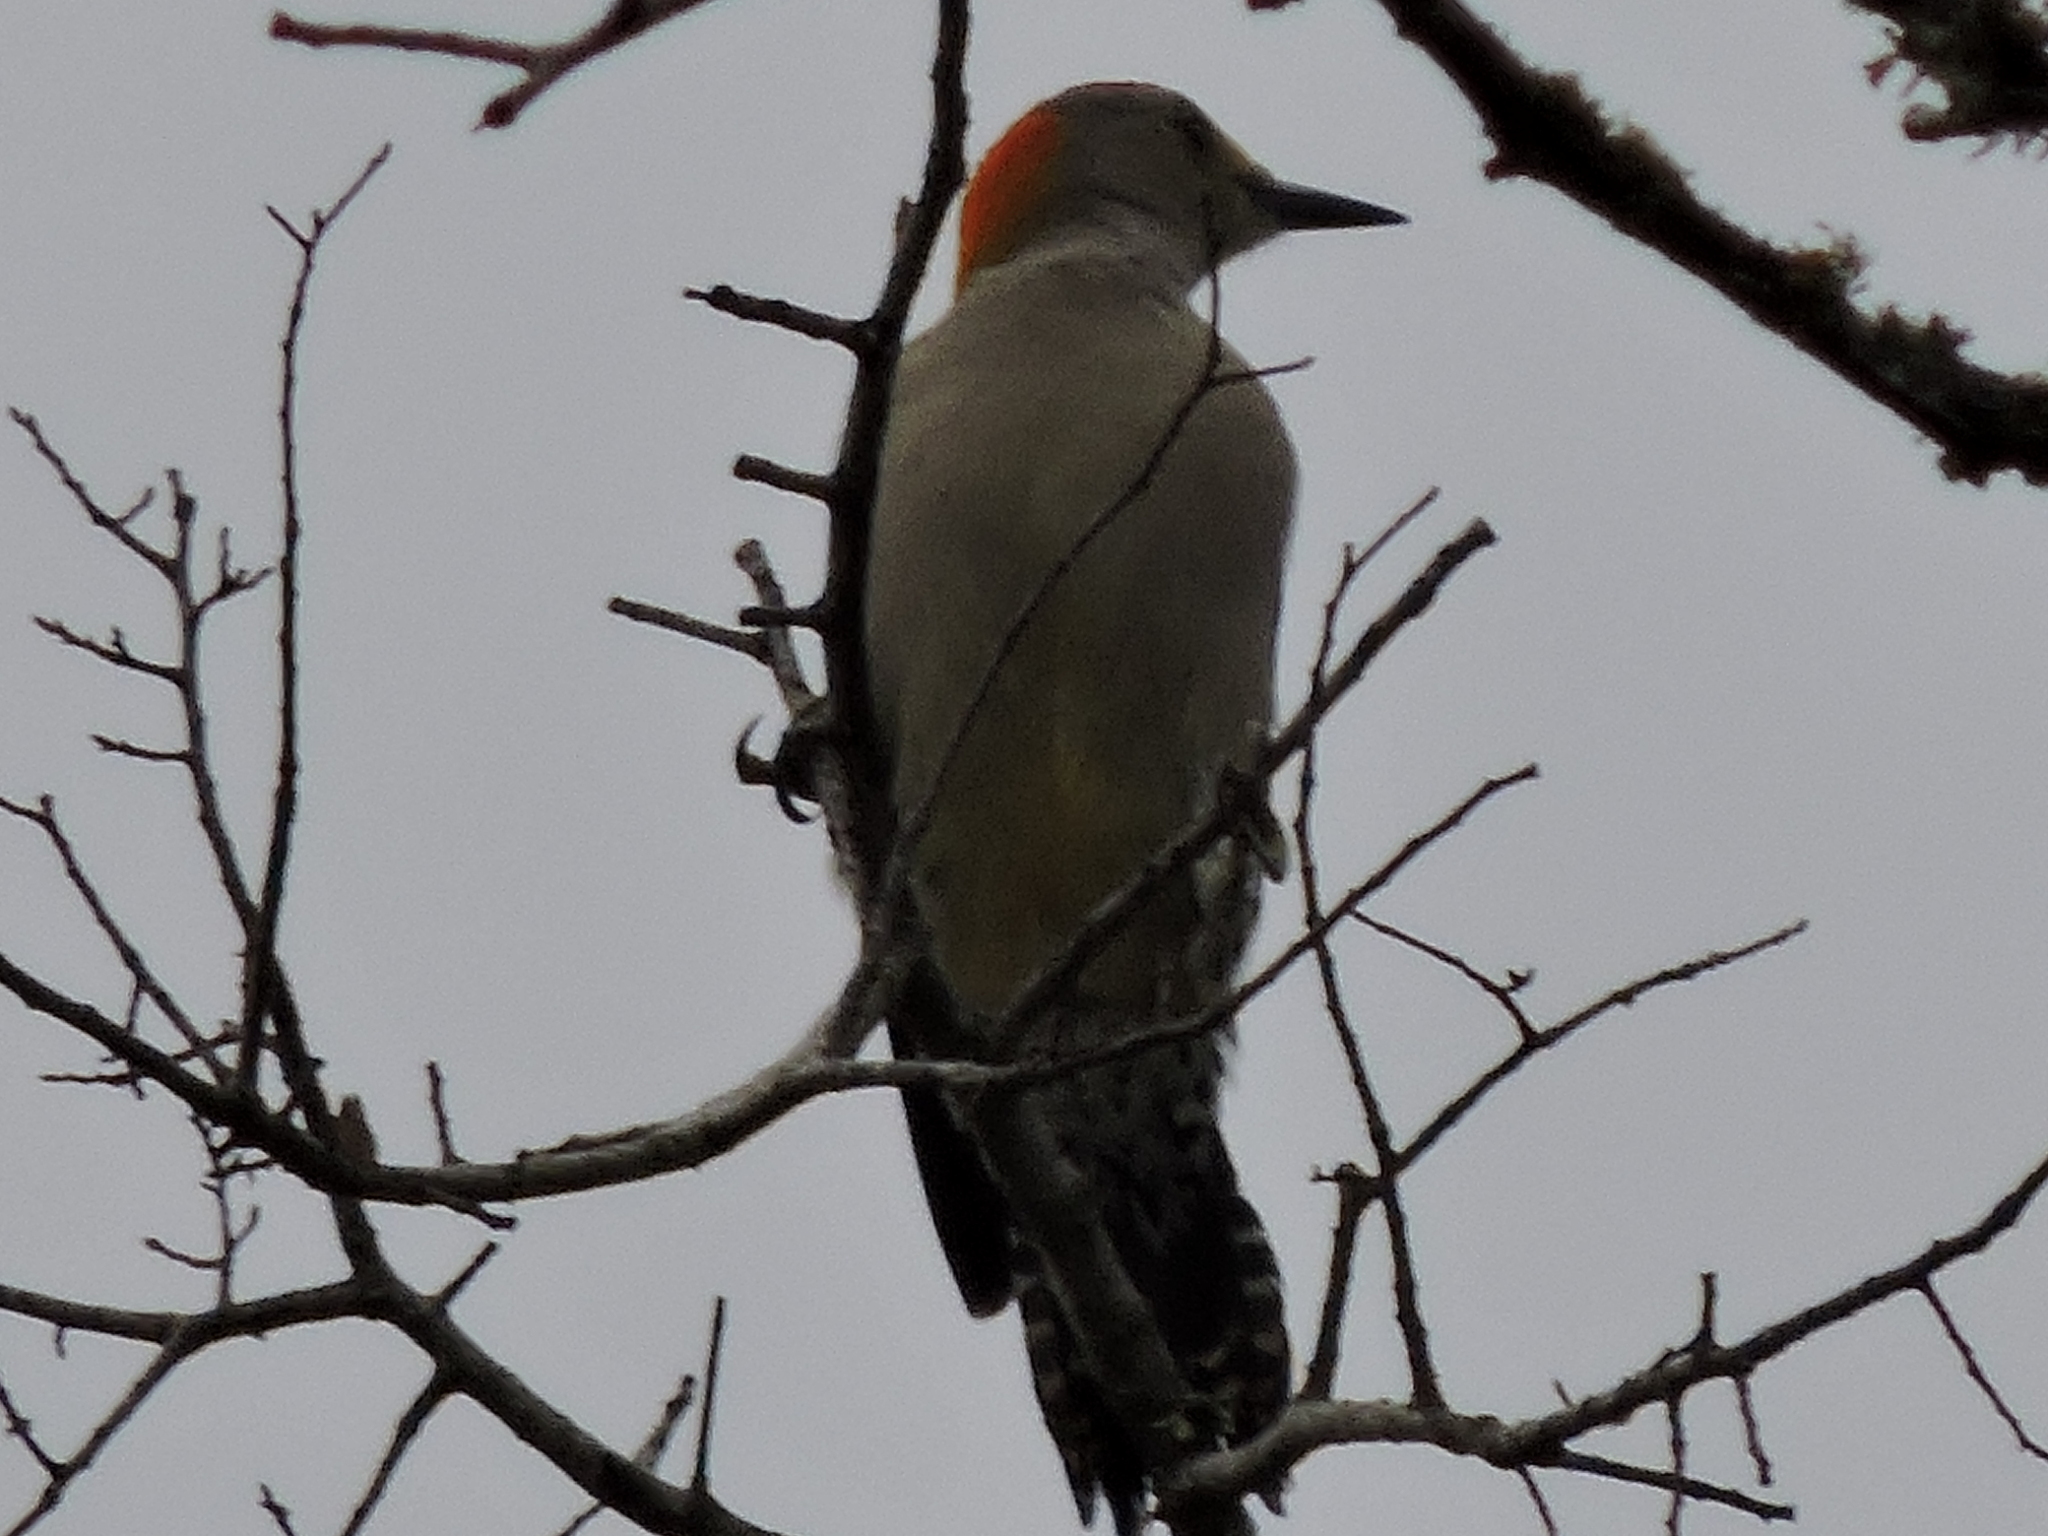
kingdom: Animalia
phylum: Chordata
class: Aves
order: Piciformes
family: Picidae
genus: Melanerpes
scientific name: Melanerpes aurifrons
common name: Golden-fronted woodpecker
